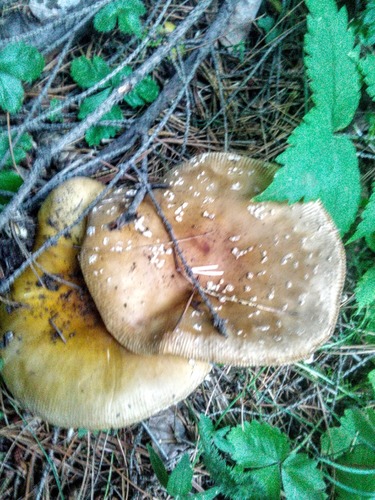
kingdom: Fungi
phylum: Basidiomycota
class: Agaricomycetes
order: Agaricales
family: Amanitaceae
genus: Amanita
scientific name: Amanita regalis
